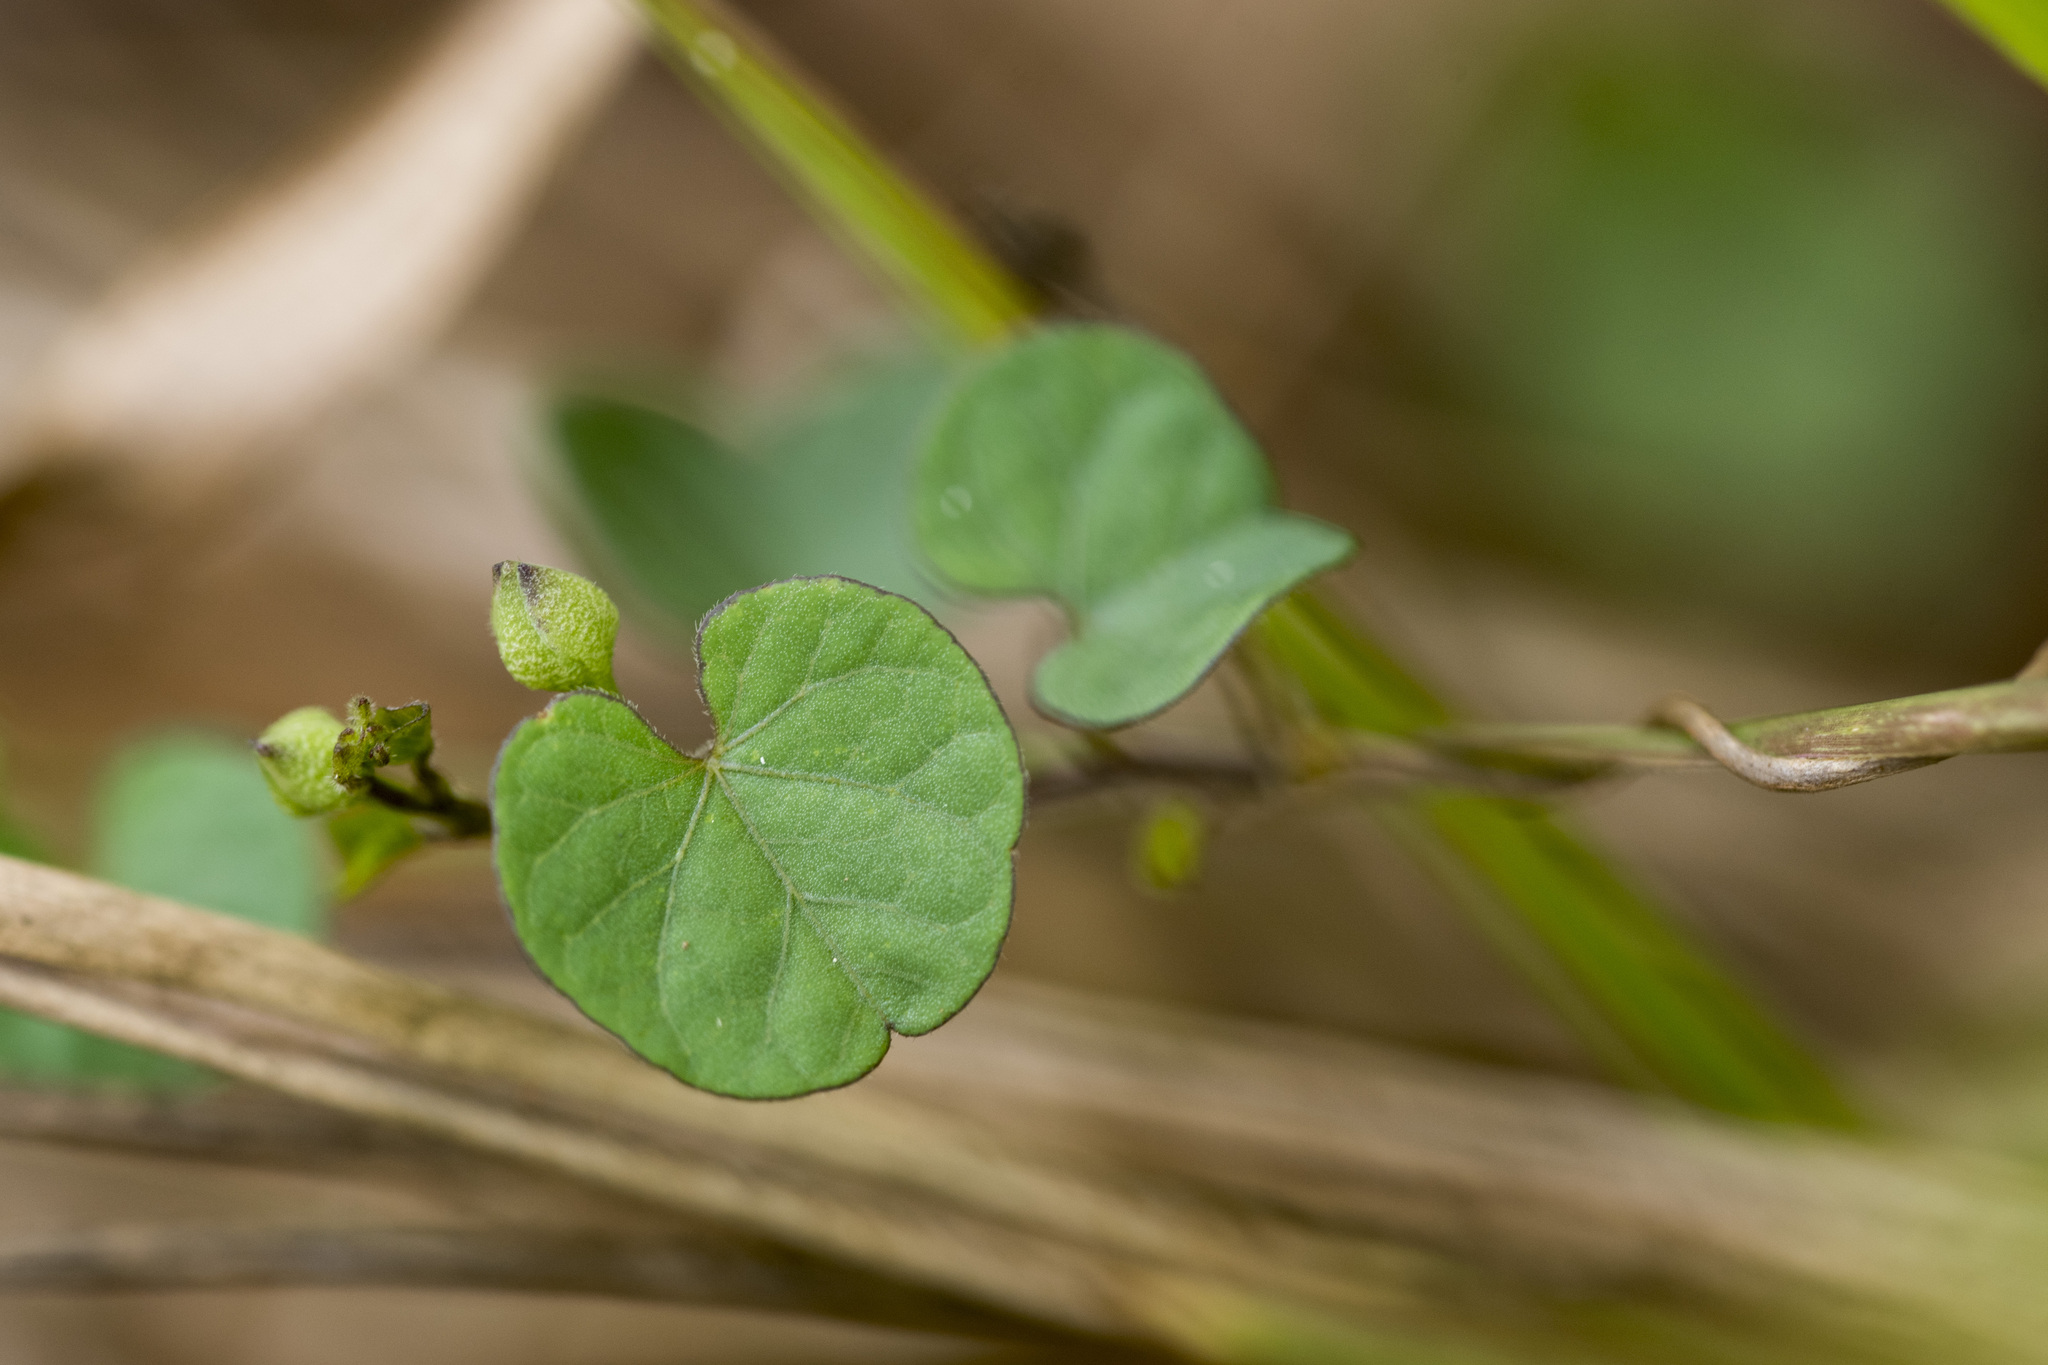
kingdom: Plantae
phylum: Tracheophyta
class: Magnoliopsida
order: Solanales
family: Convolvulaceae
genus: Ipomoea
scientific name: Ipomoea obscura
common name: Obscure morning-glory
